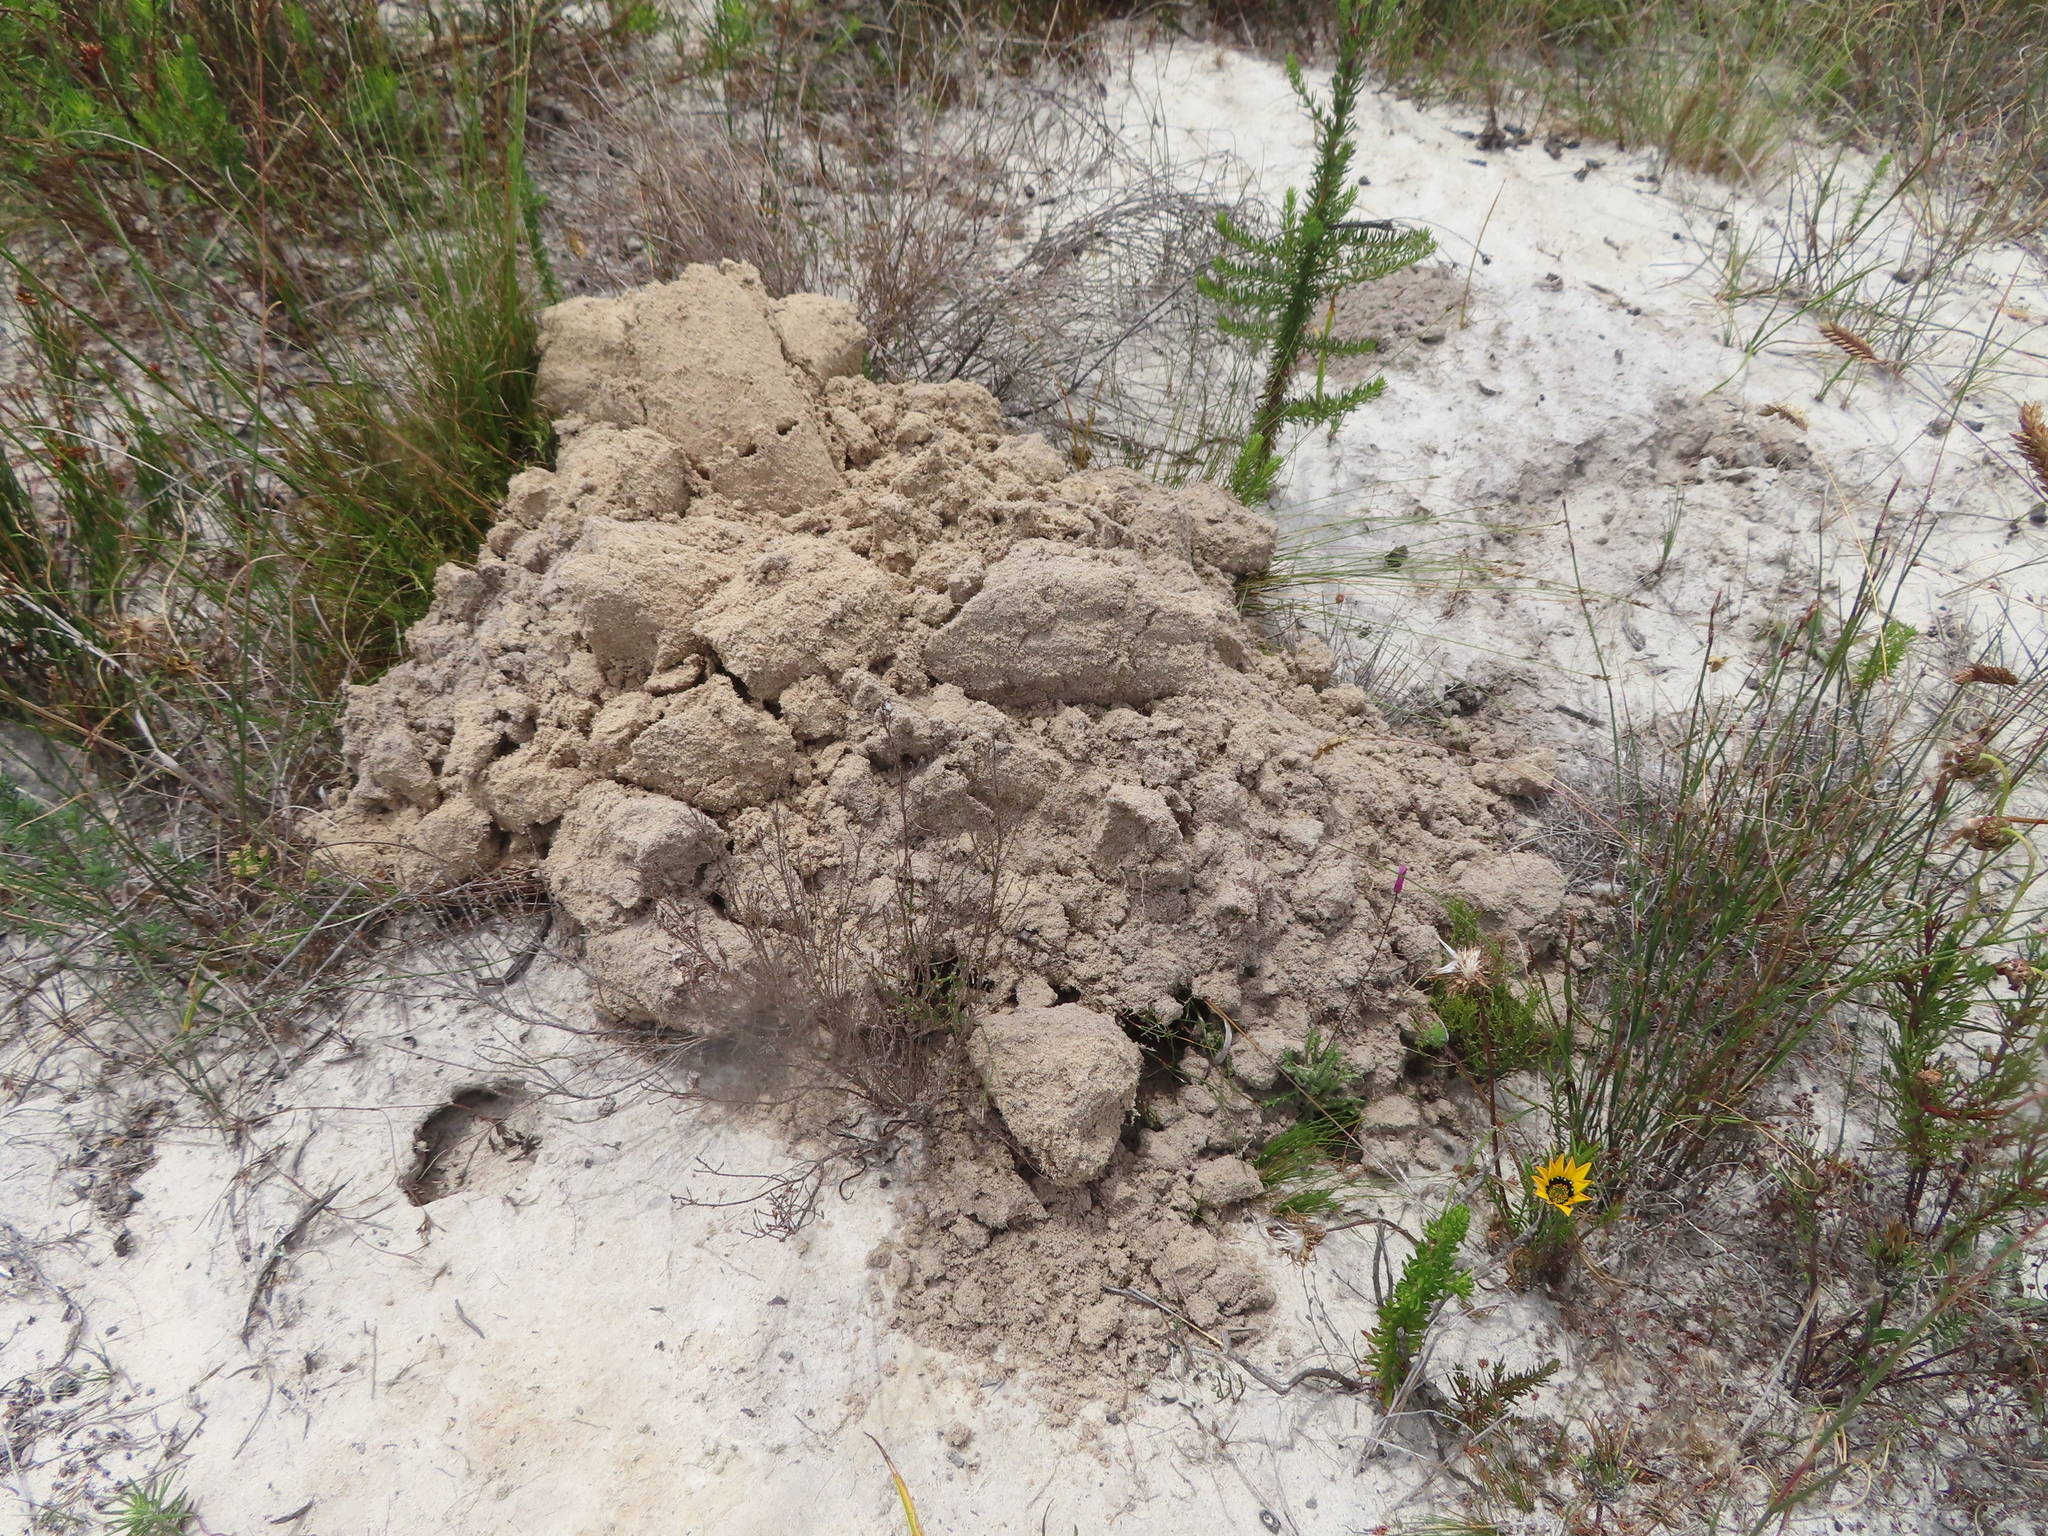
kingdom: Animalia
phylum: Chordata
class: Mammalia
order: Rodentia
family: Bathyergidae
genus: Bathyergus
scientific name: Bathyergus suillus
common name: Cape dune mole rat
